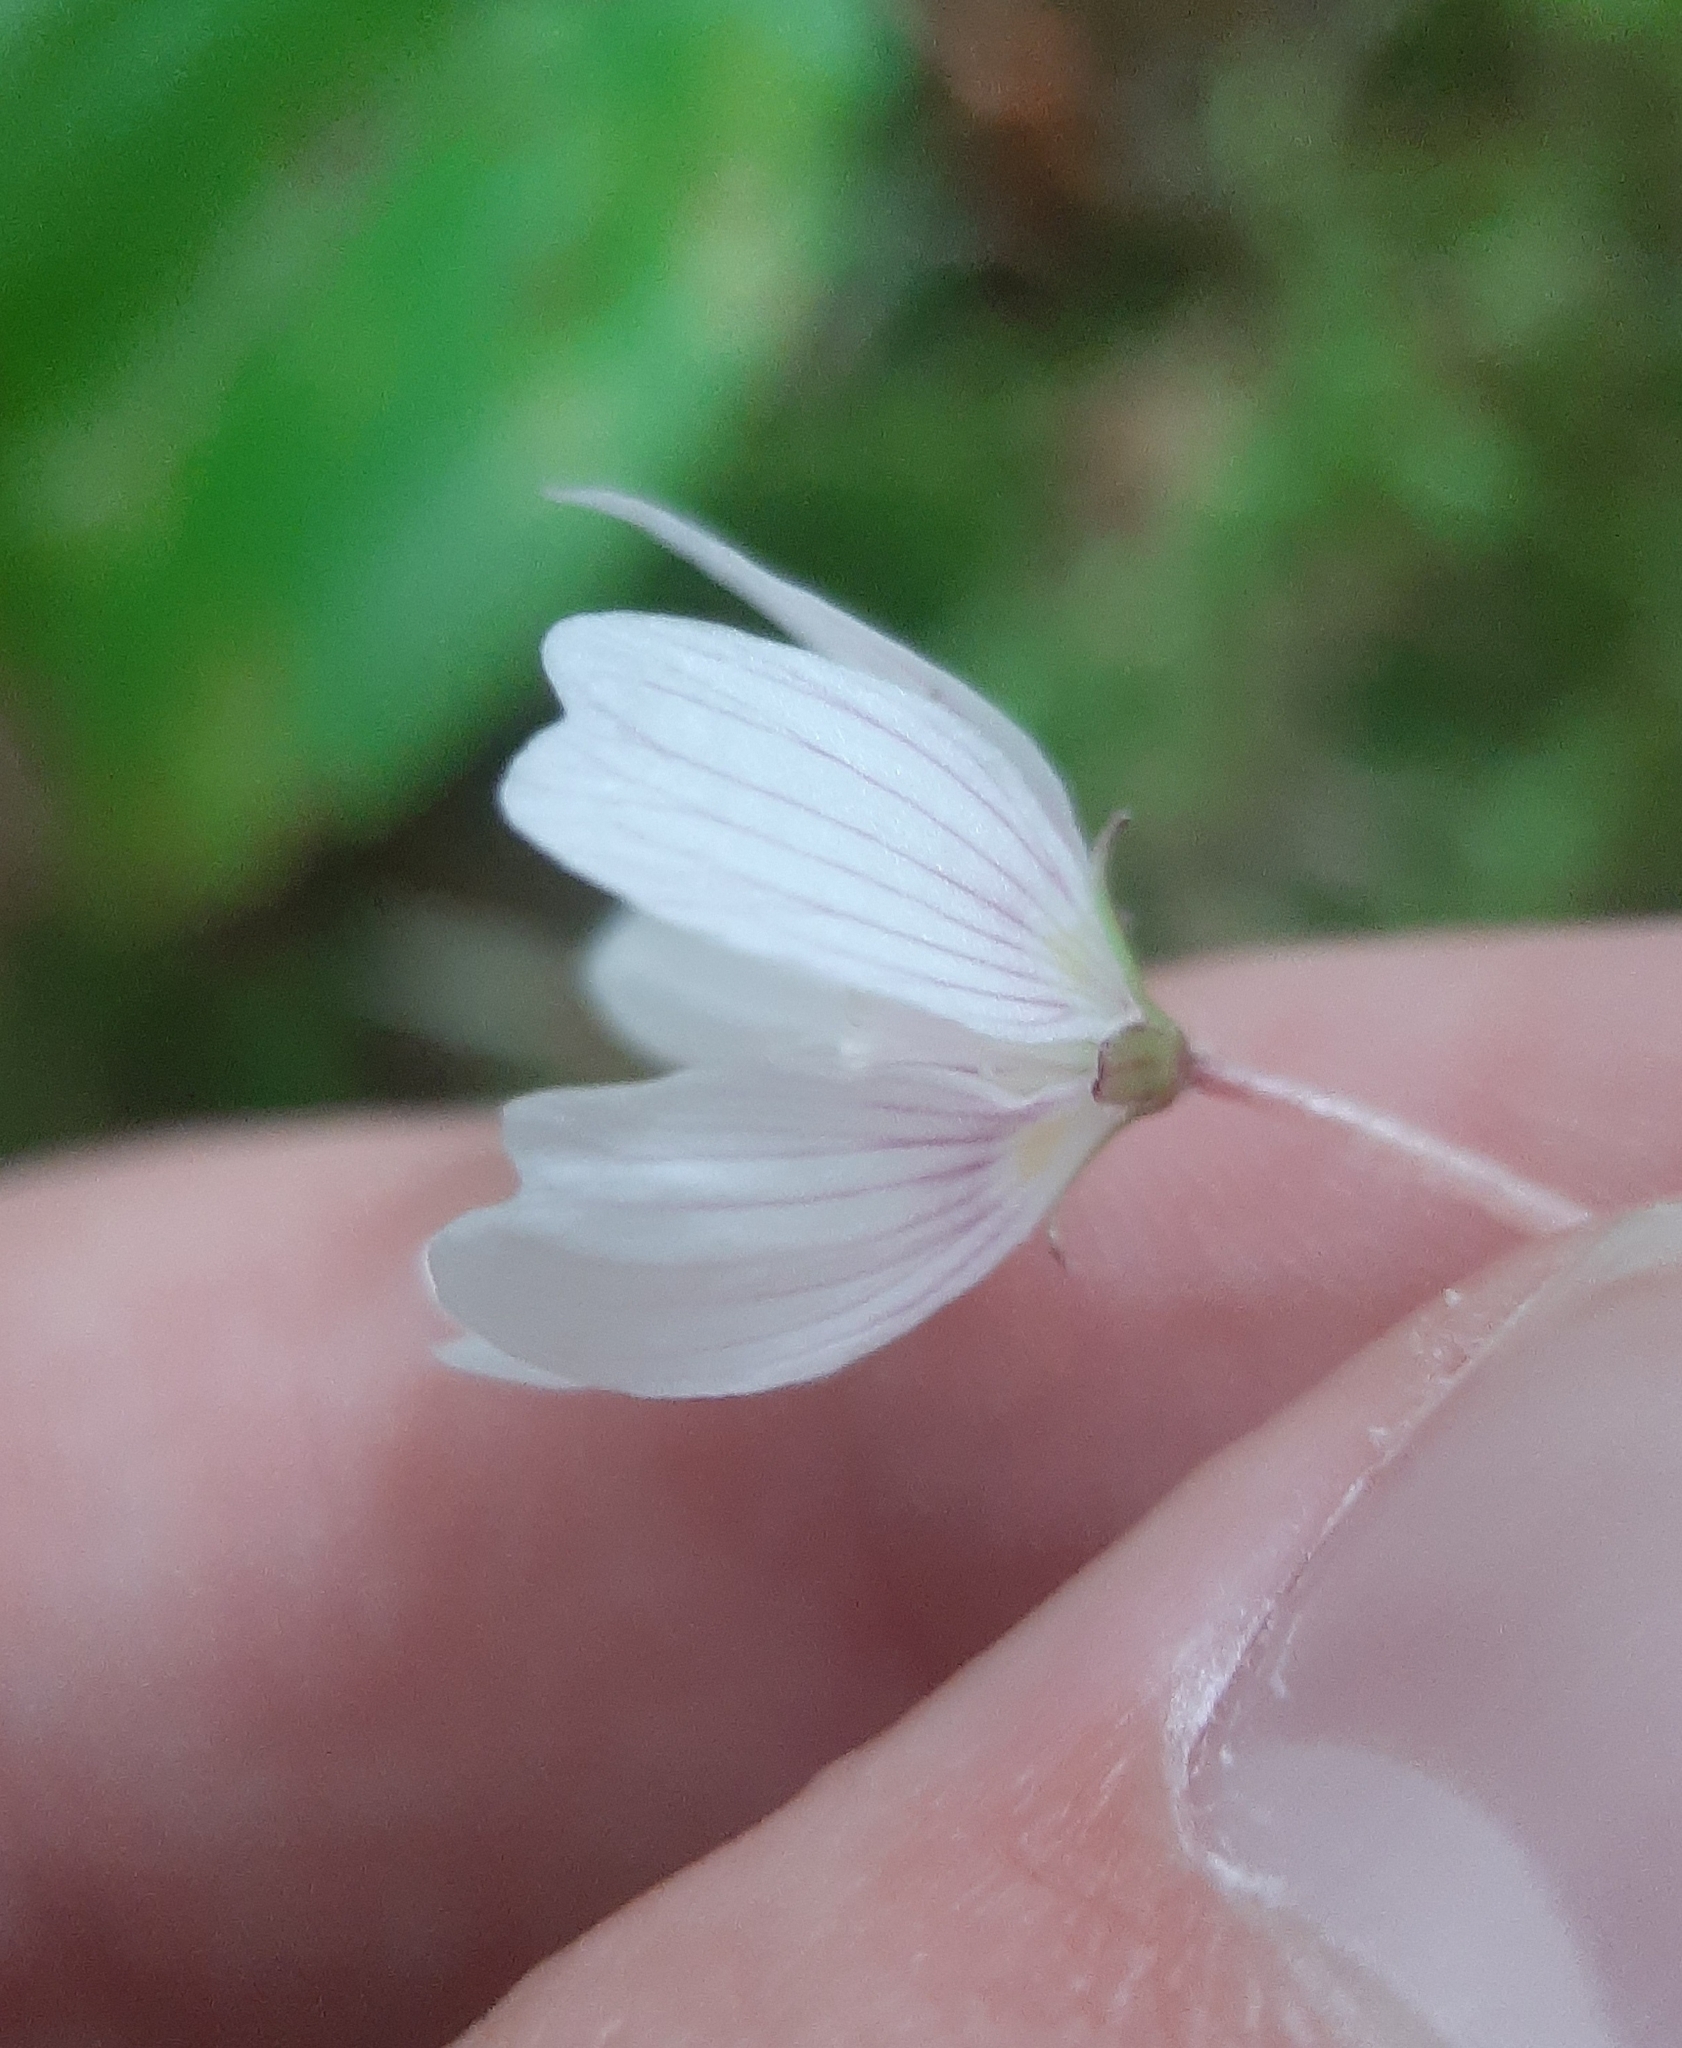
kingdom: Plantae
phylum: Tracheophyta
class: Magnoliopsida
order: Oxalidales
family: Oxalidaceae
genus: Oxalis
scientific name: Oxalis montana
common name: American wood-sorrel
